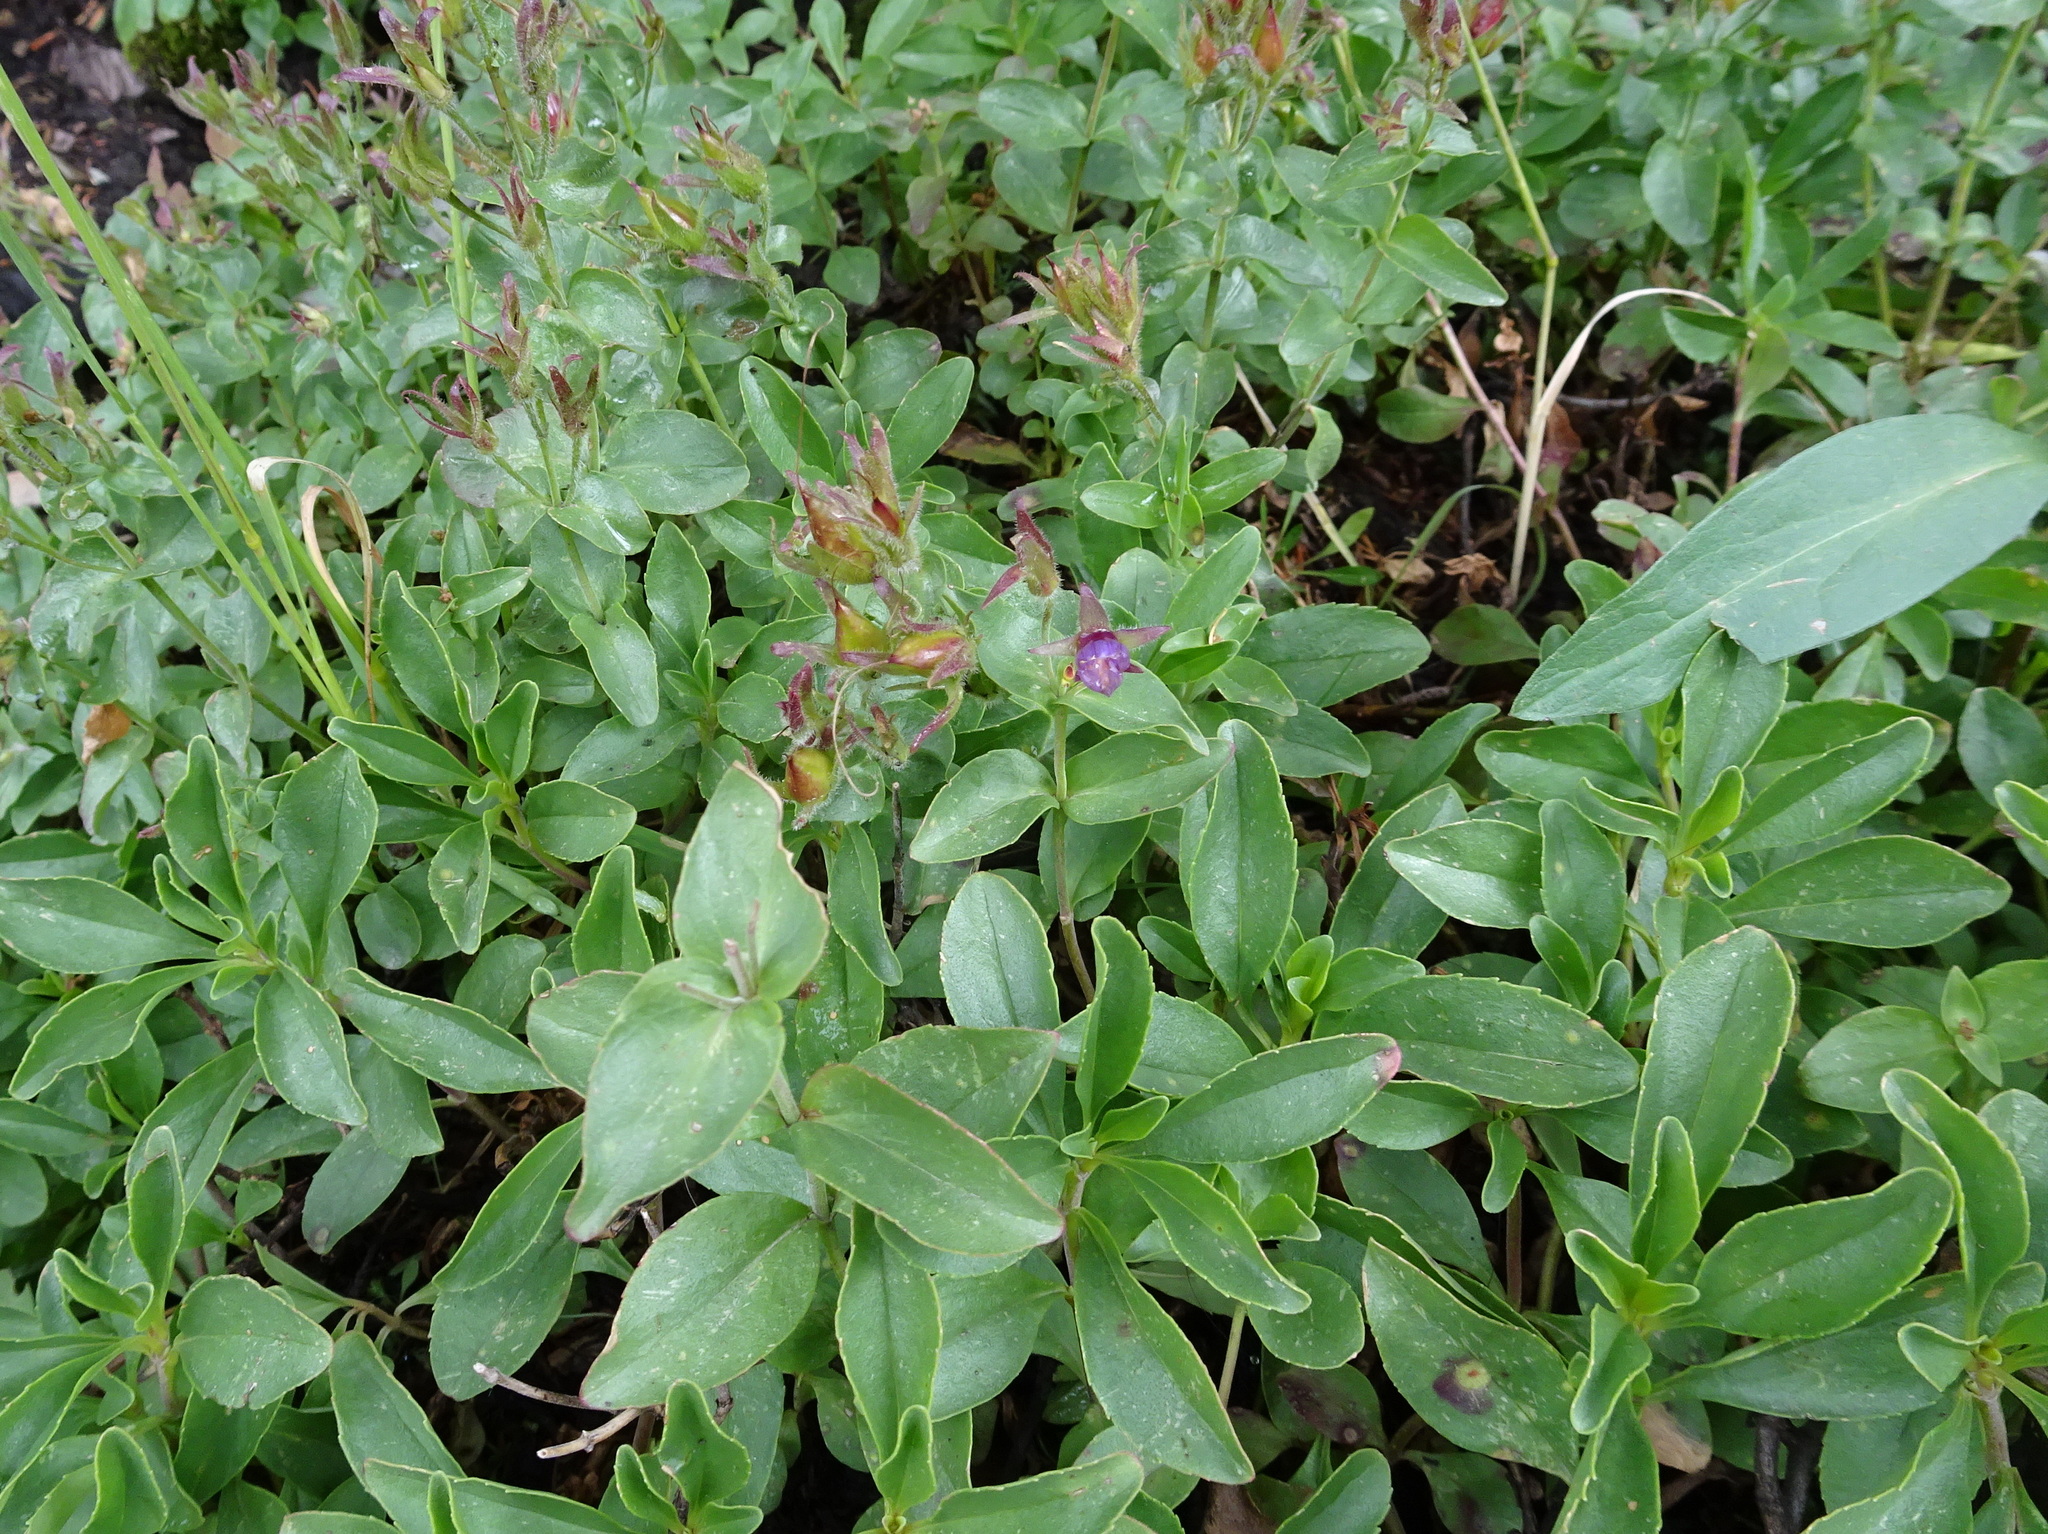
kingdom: Plantae
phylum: Tracheophyta
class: Magnoliopsida
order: Lamiales
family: Plantaginaceae
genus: Penstemon
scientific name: Penstemon ellipticus
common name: Alpine beardtongue
